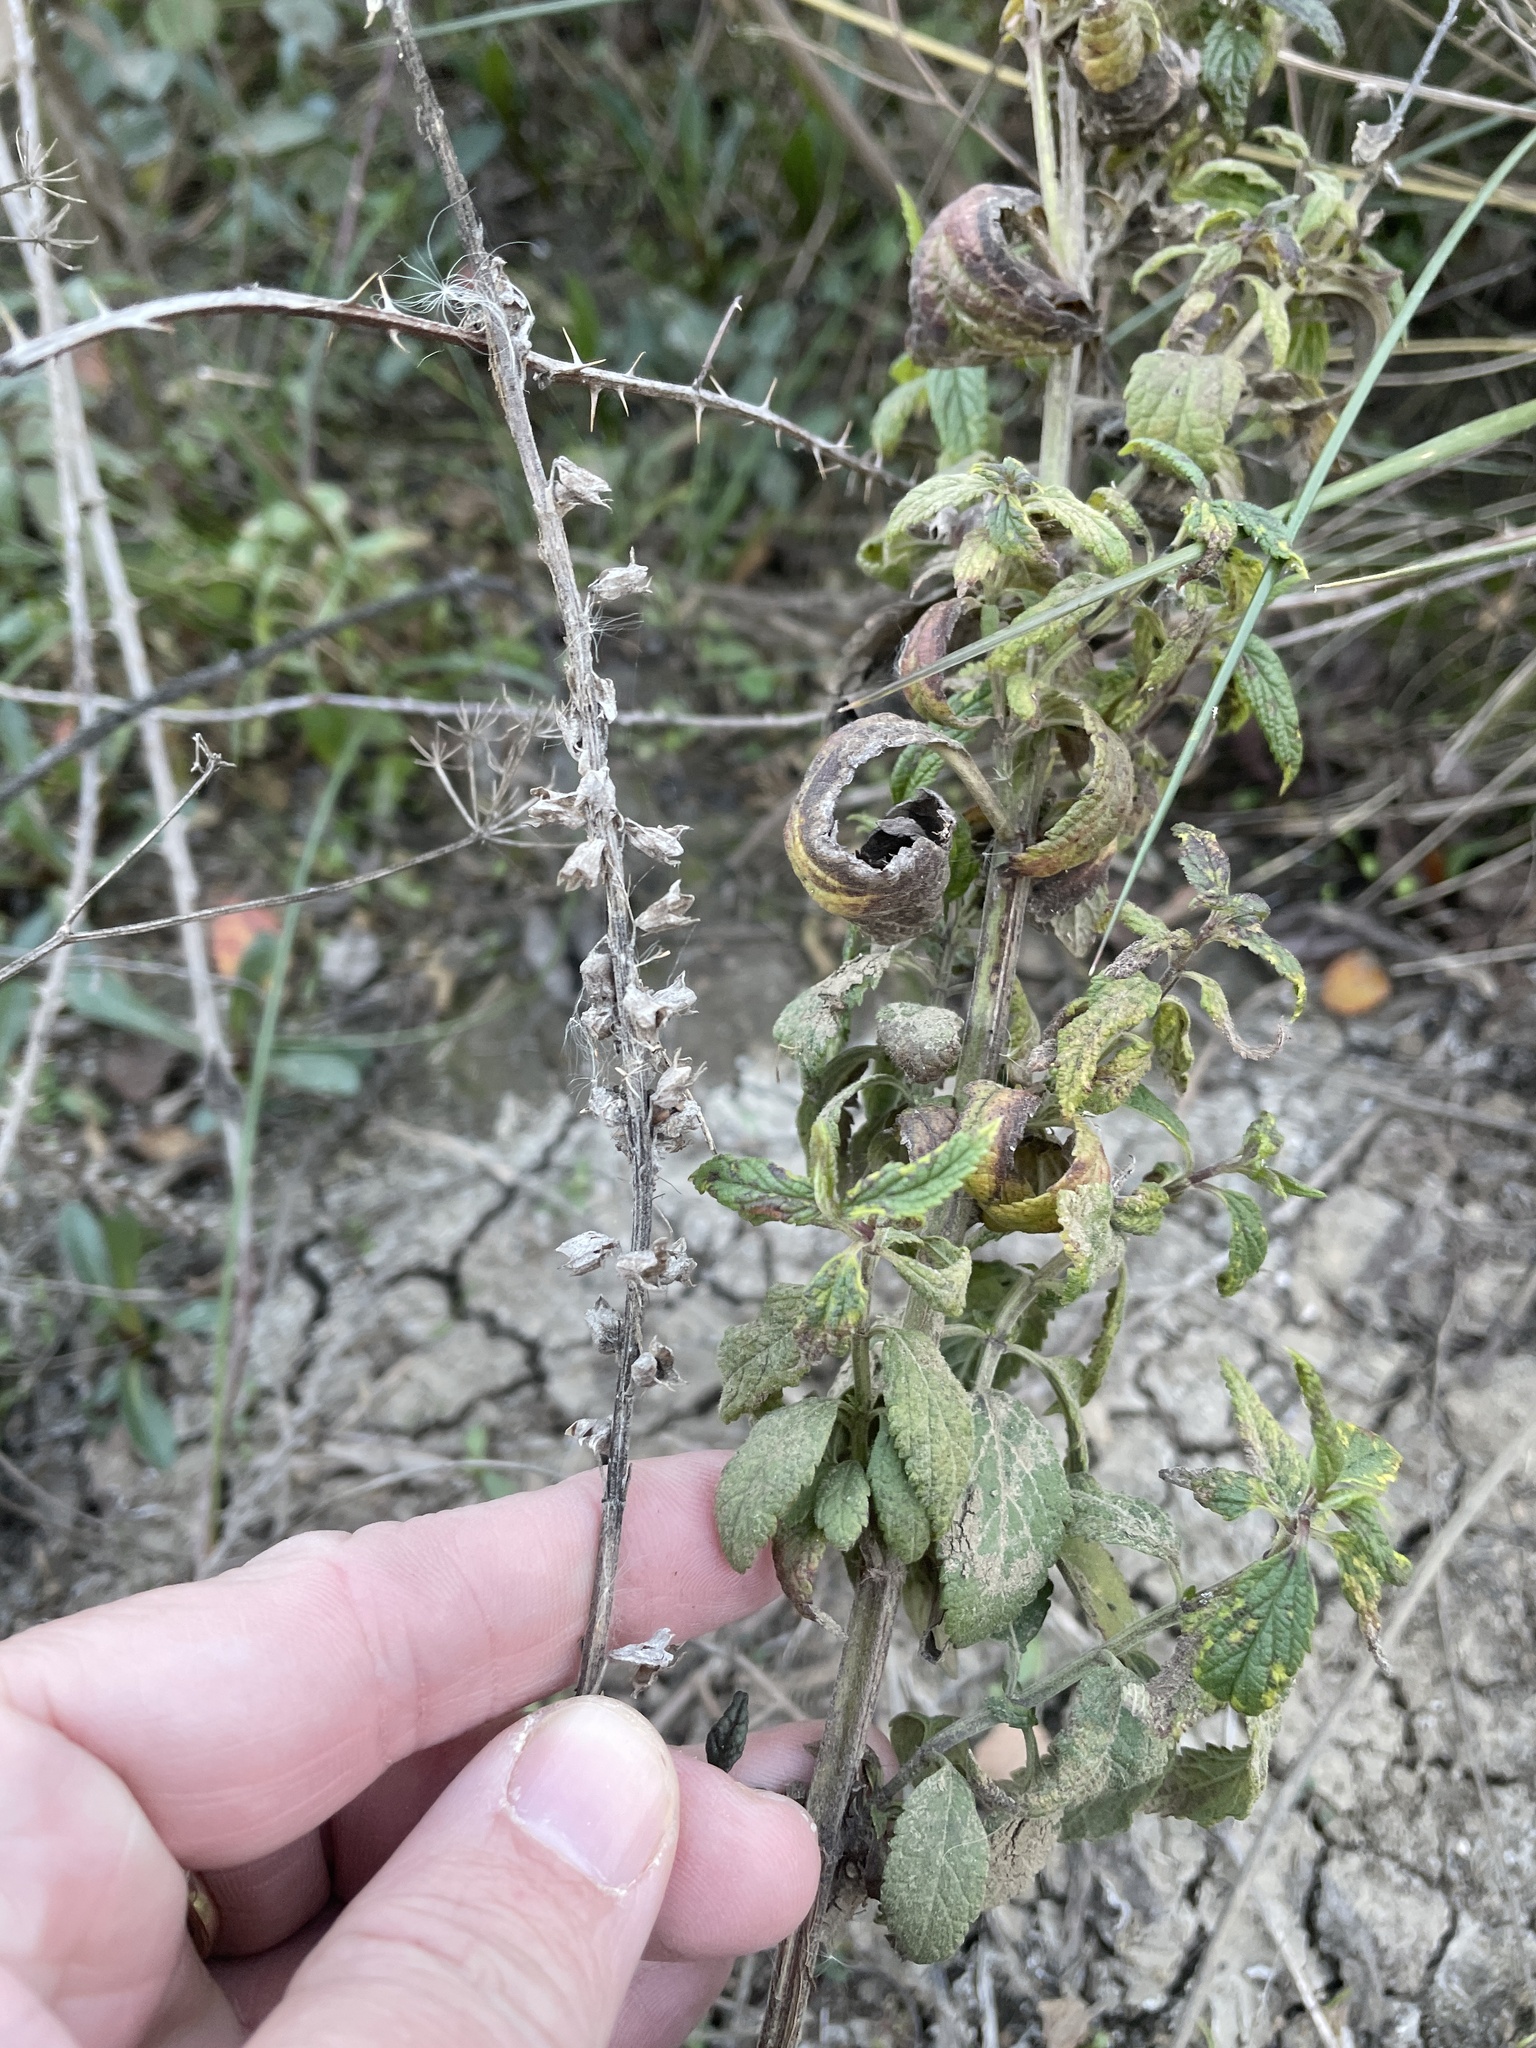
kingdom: Plantae
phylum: Tracheophyta
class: Magnoliopsida
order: Lamiales
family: Lamiaceae
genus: Teucrium
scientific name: Teucrium canadense
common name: American germander
